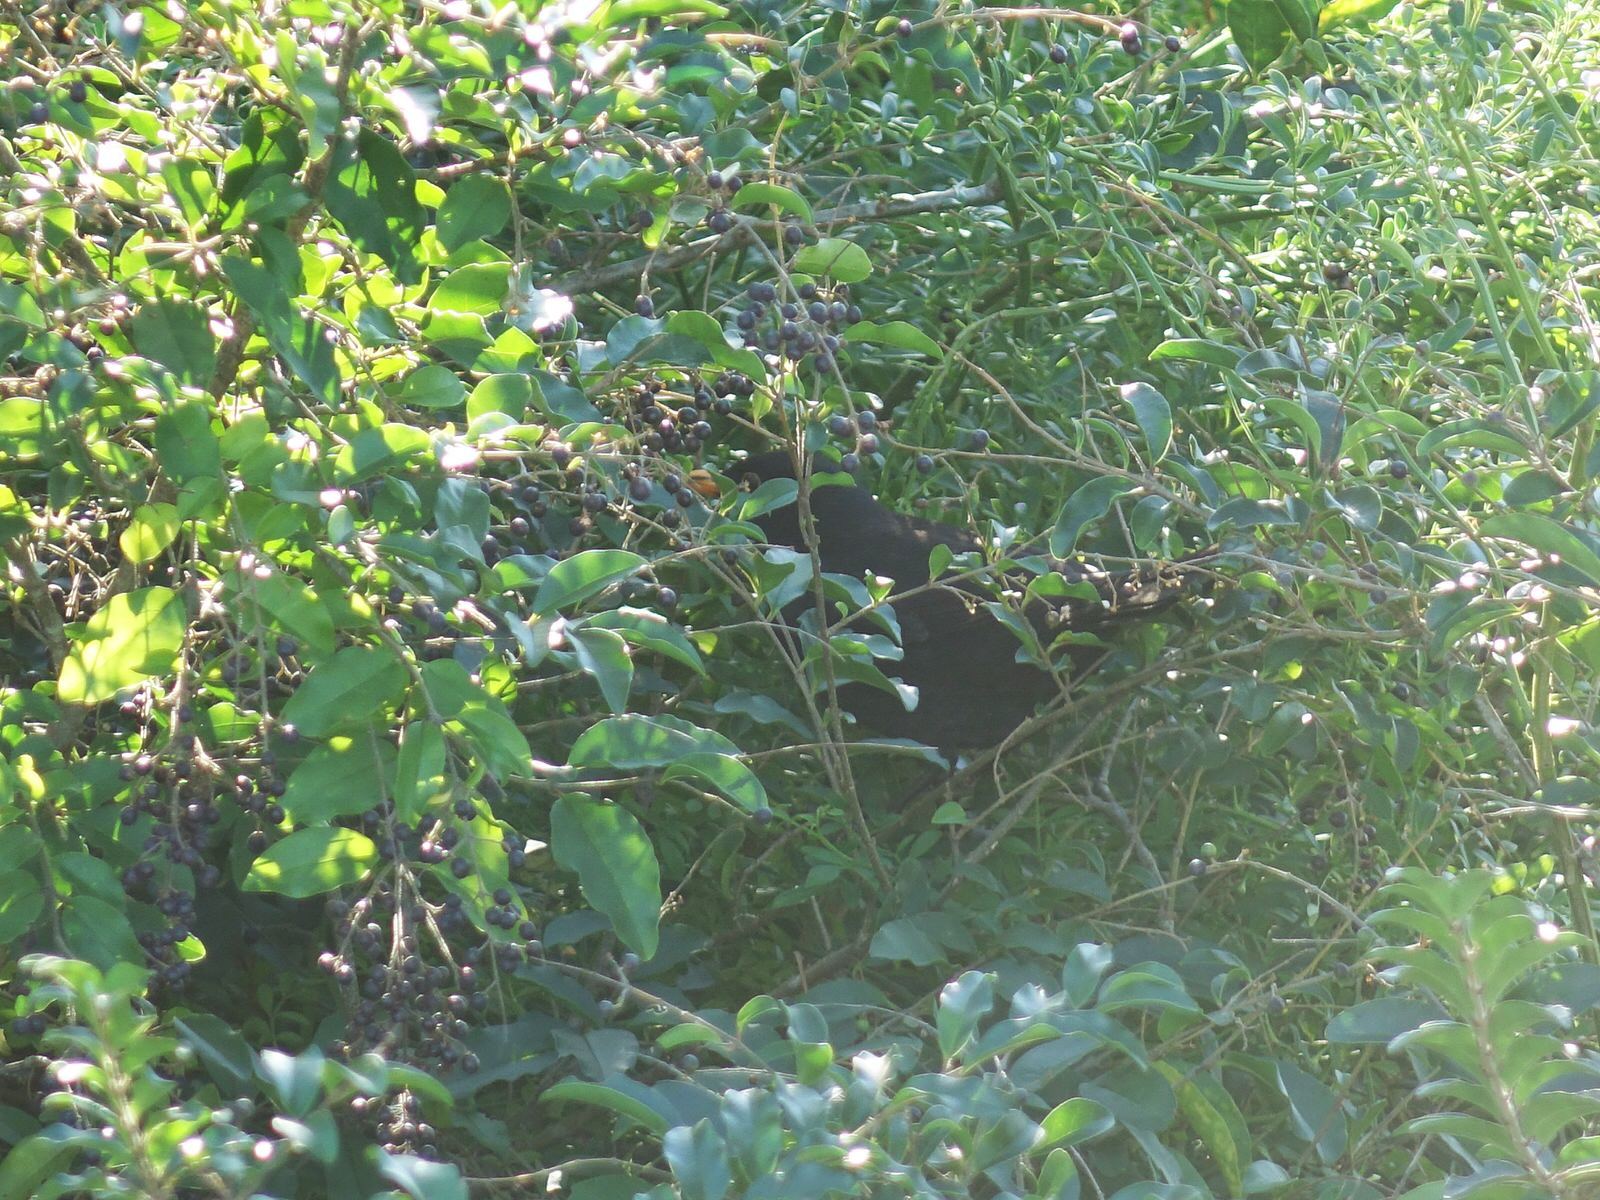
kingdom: Animalia
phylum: Chordata
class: Aves
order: Passeriformes
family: Turdidae
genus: Turdus
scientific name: Turdus merula
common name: Common blackbird
